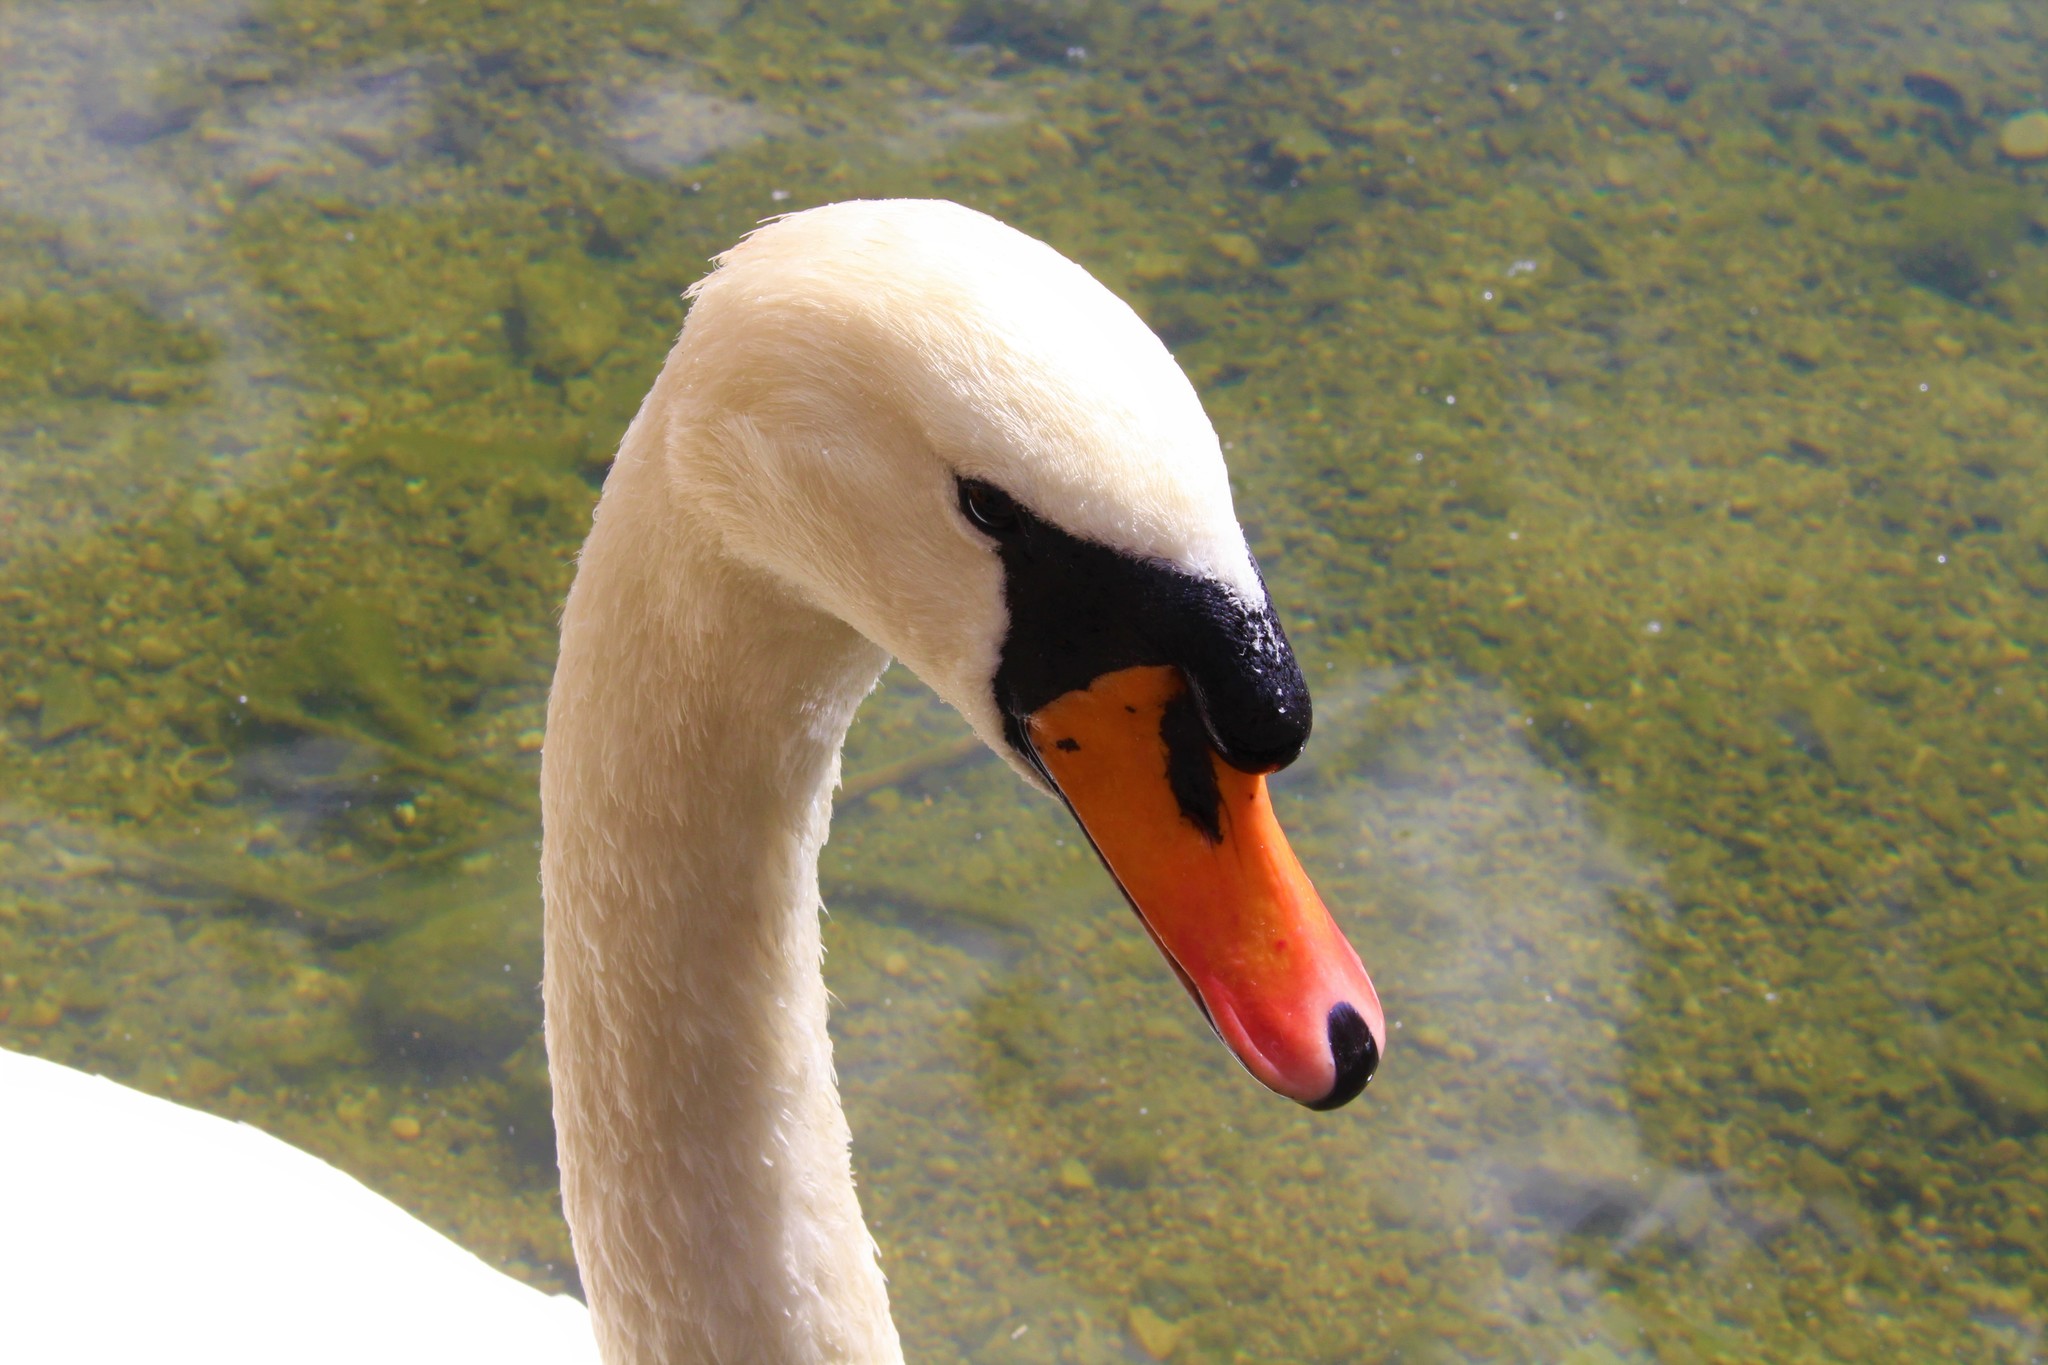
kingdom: Animalia
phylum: Chordata
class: Aves
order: Anseriformes
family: Anatidae
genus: Cygnus
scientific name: Cygnus olor
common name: Mute swan
